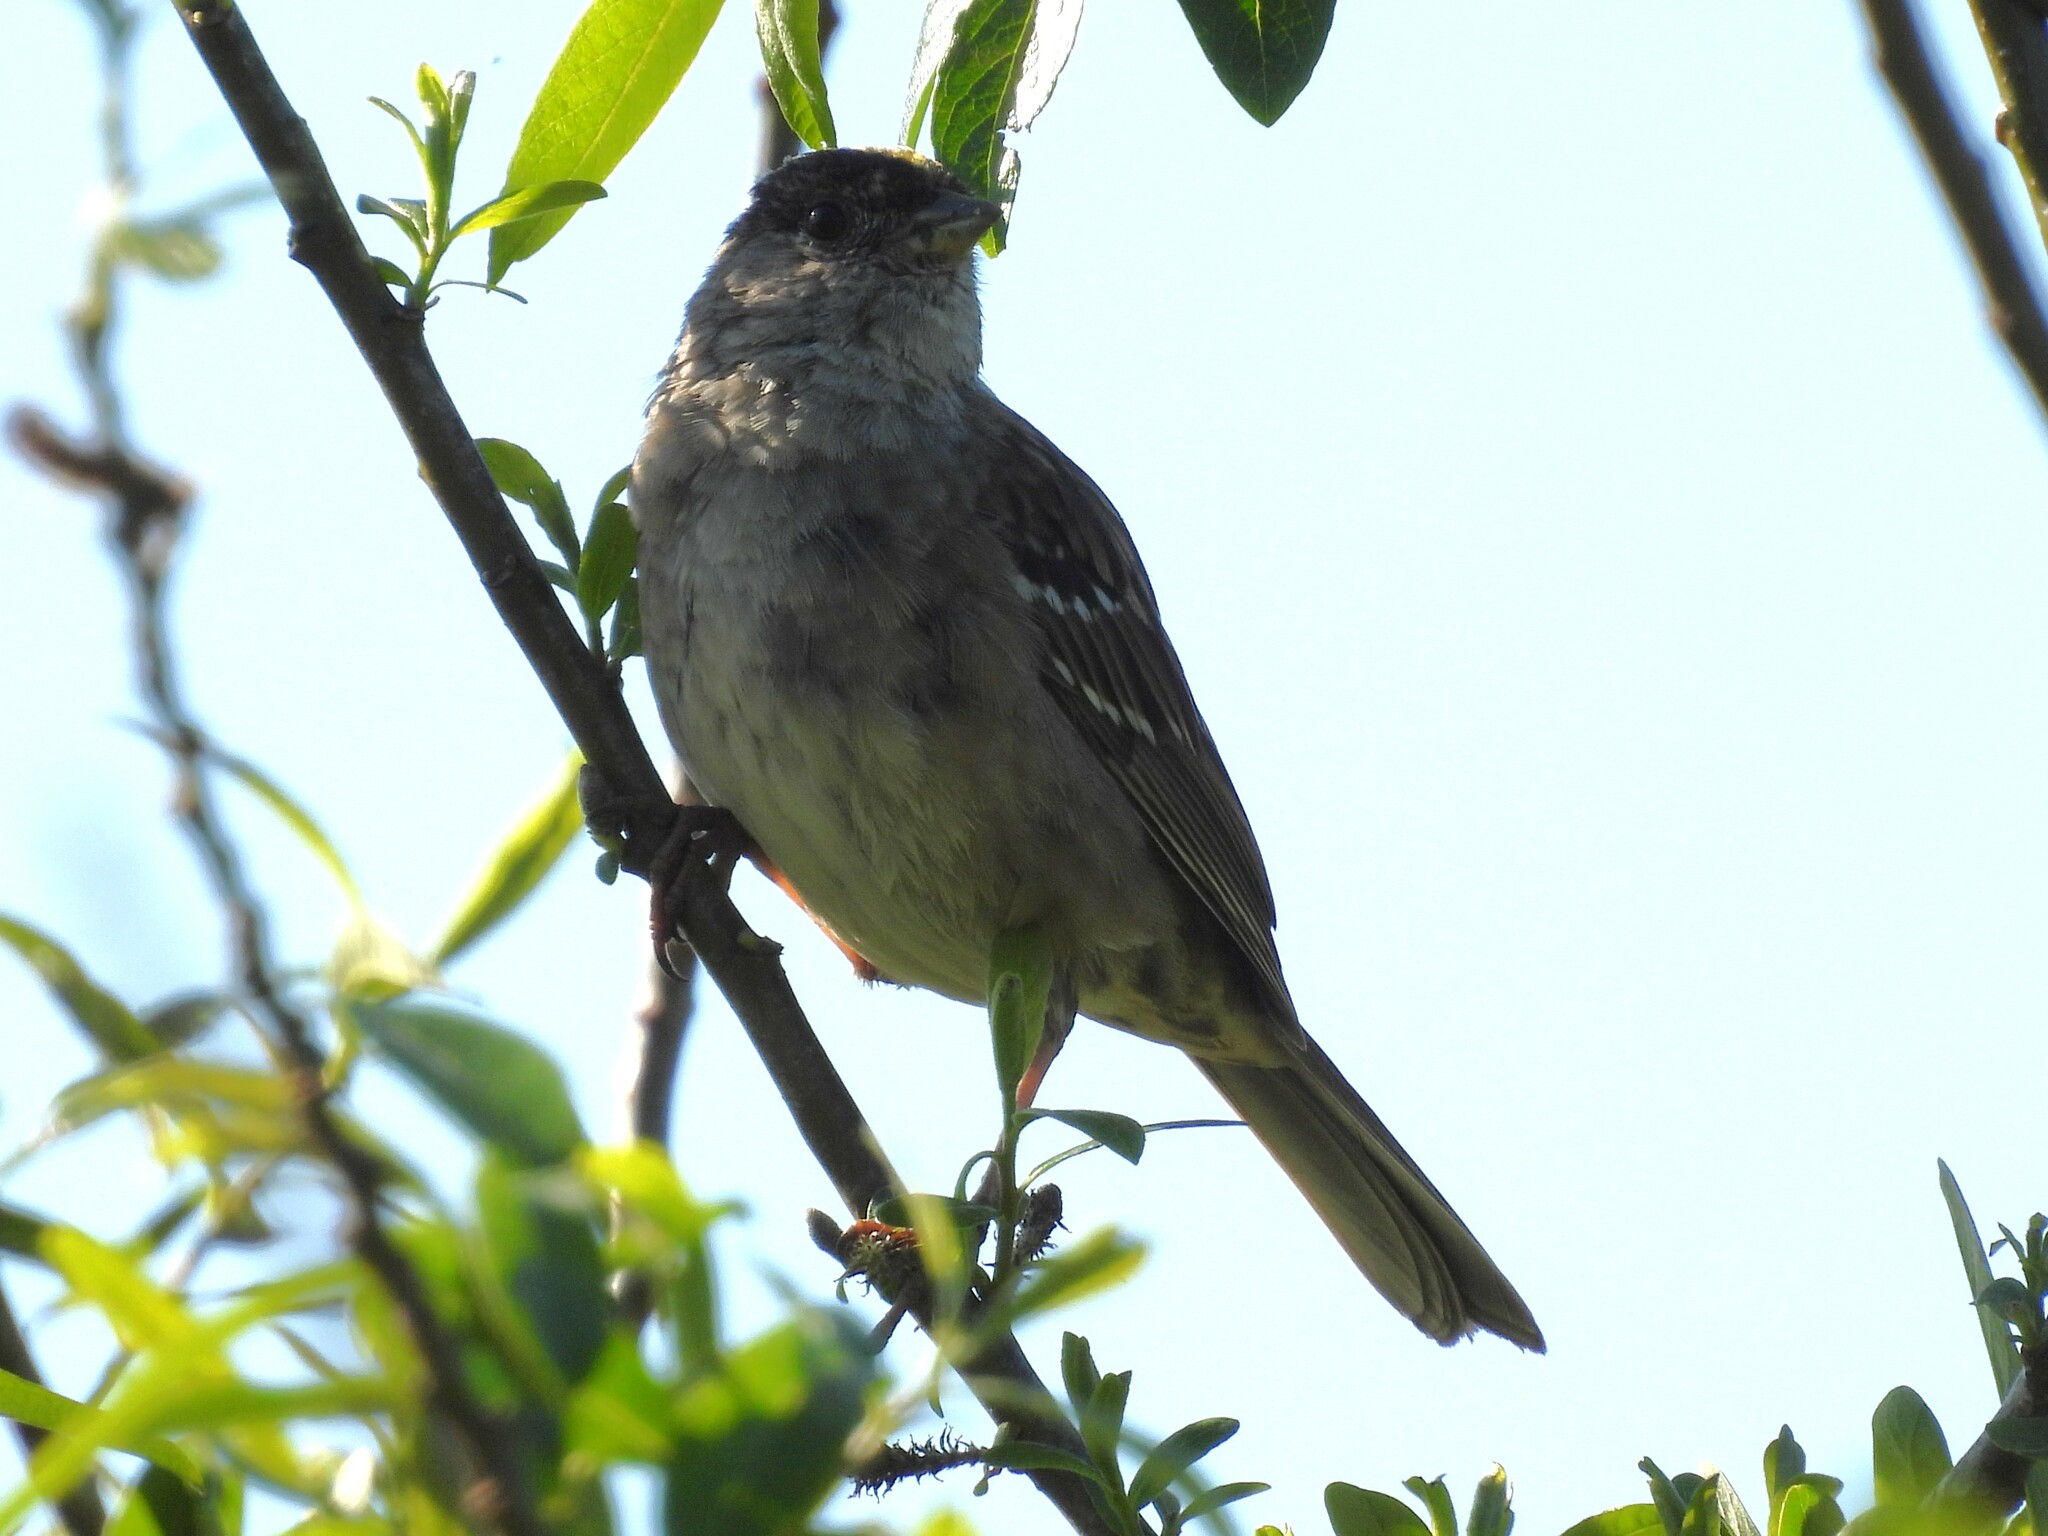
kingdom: Animalia
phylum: Chordata
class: Aves
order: Passeriformes
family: Passerellidae
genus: Zonotrichia
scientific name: Zonotrichia atricapilla
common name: Golden-crowned sparrow
